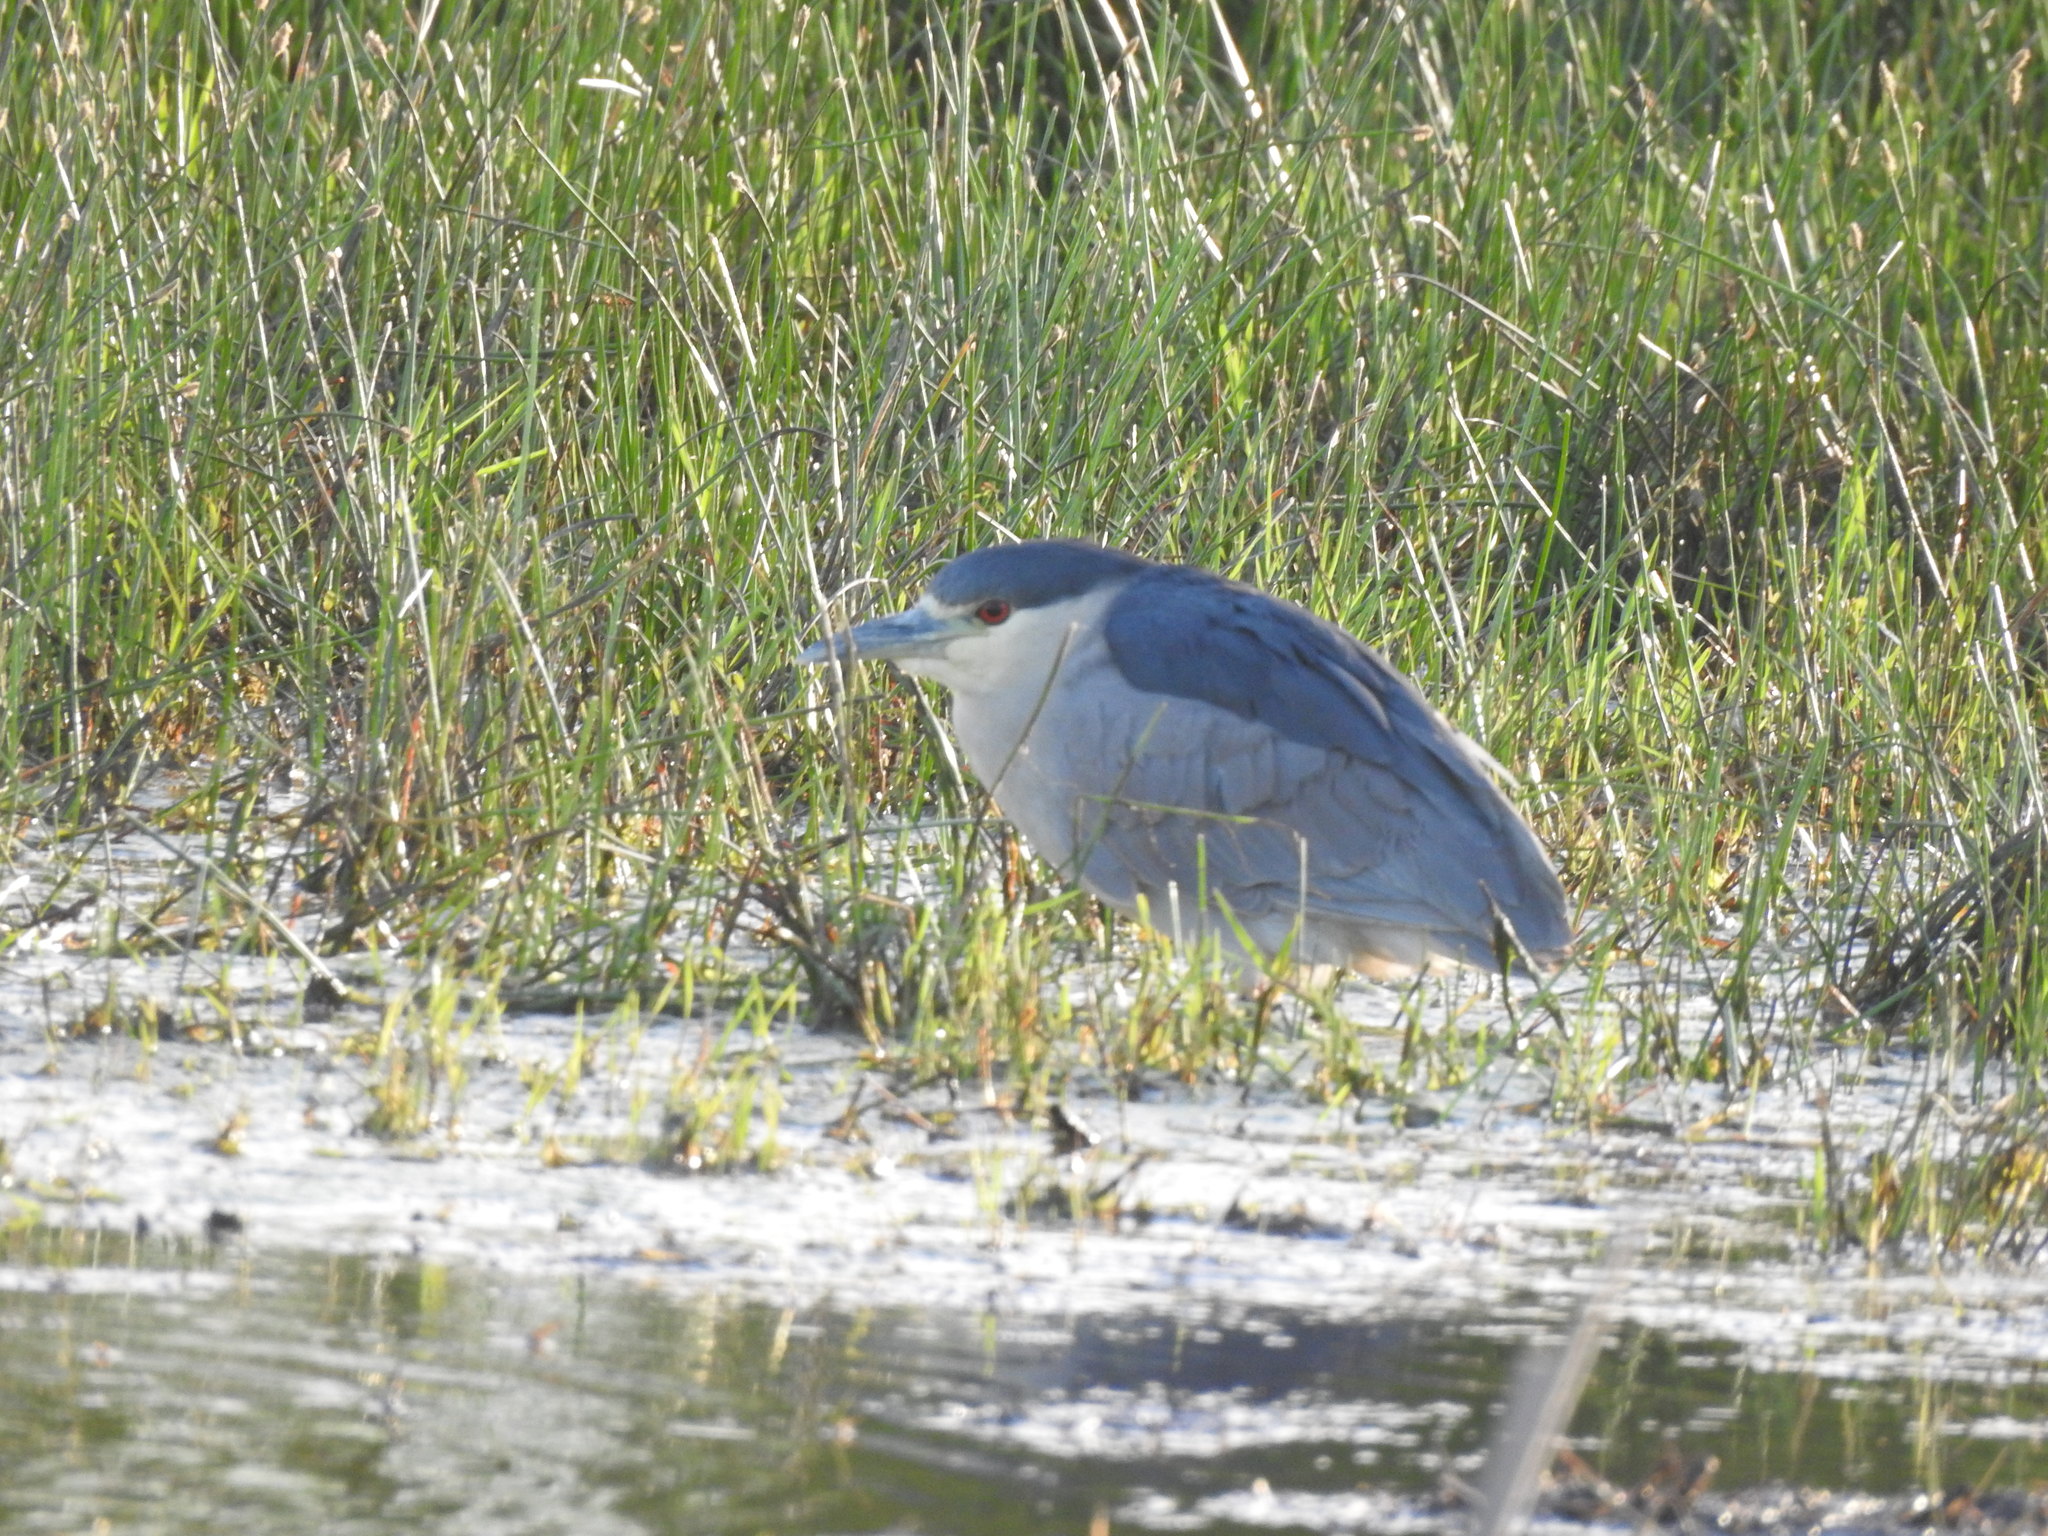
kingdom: Animalia
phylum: Chordata
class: Aves
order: Pelecaniformes
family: Ardeidae
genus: Nycticorax
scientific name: Nycticorax nycticorax
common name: Black-crowned night heron
